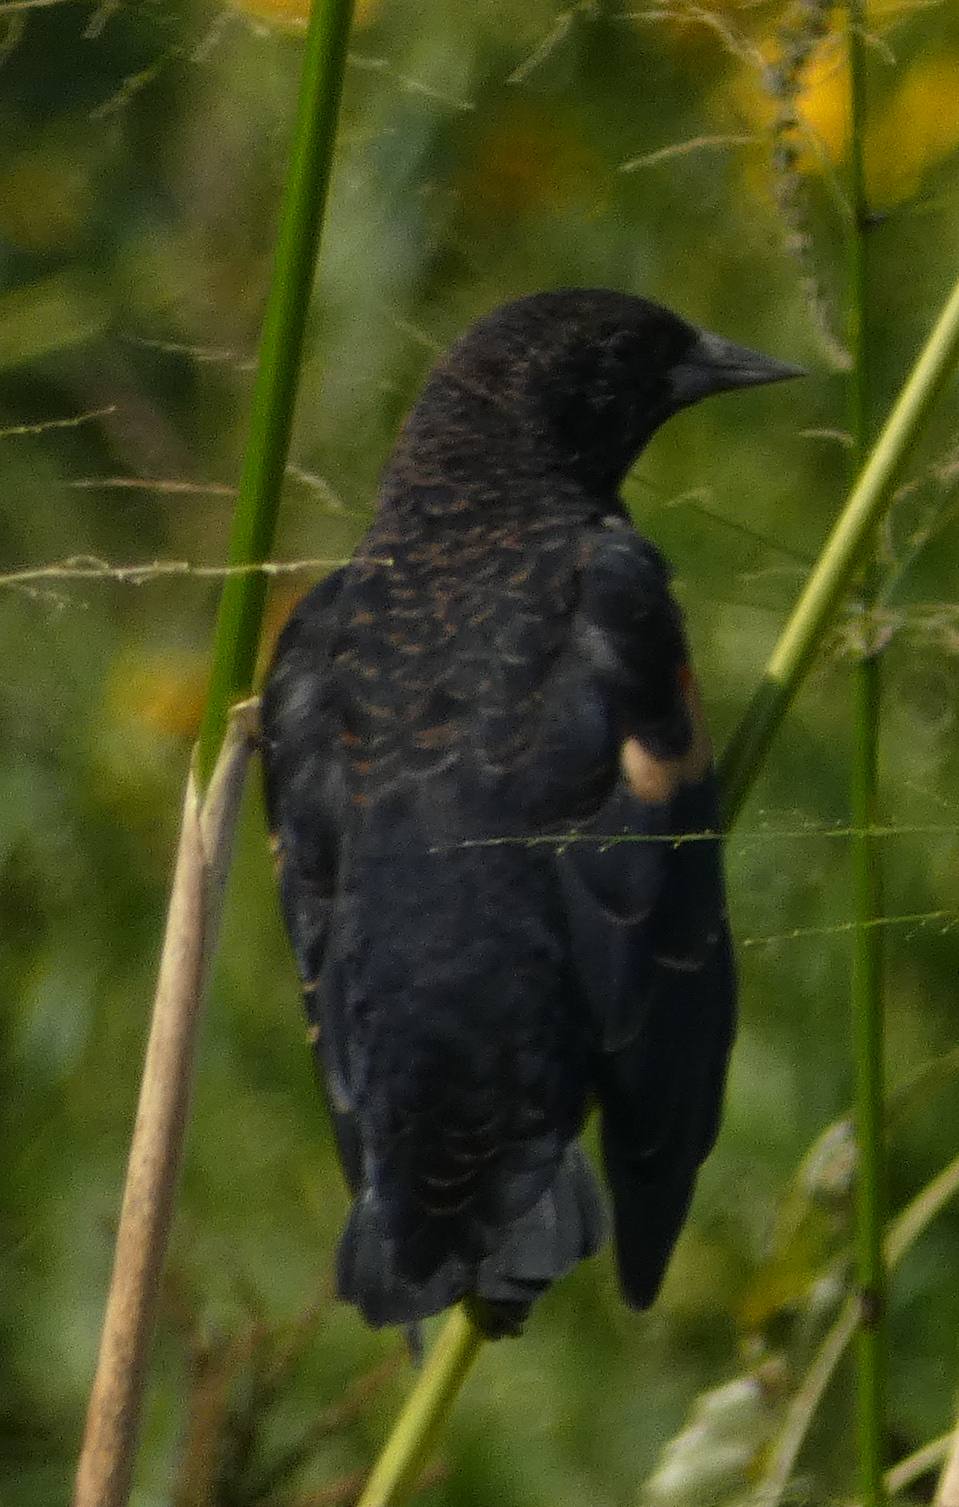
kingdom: Animalia
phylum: Chordata
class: Aves
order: Passeriformes
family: Icteridae
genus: Agelaius
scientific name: Agelaius phoeniceus
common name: Red-winged blackbird
